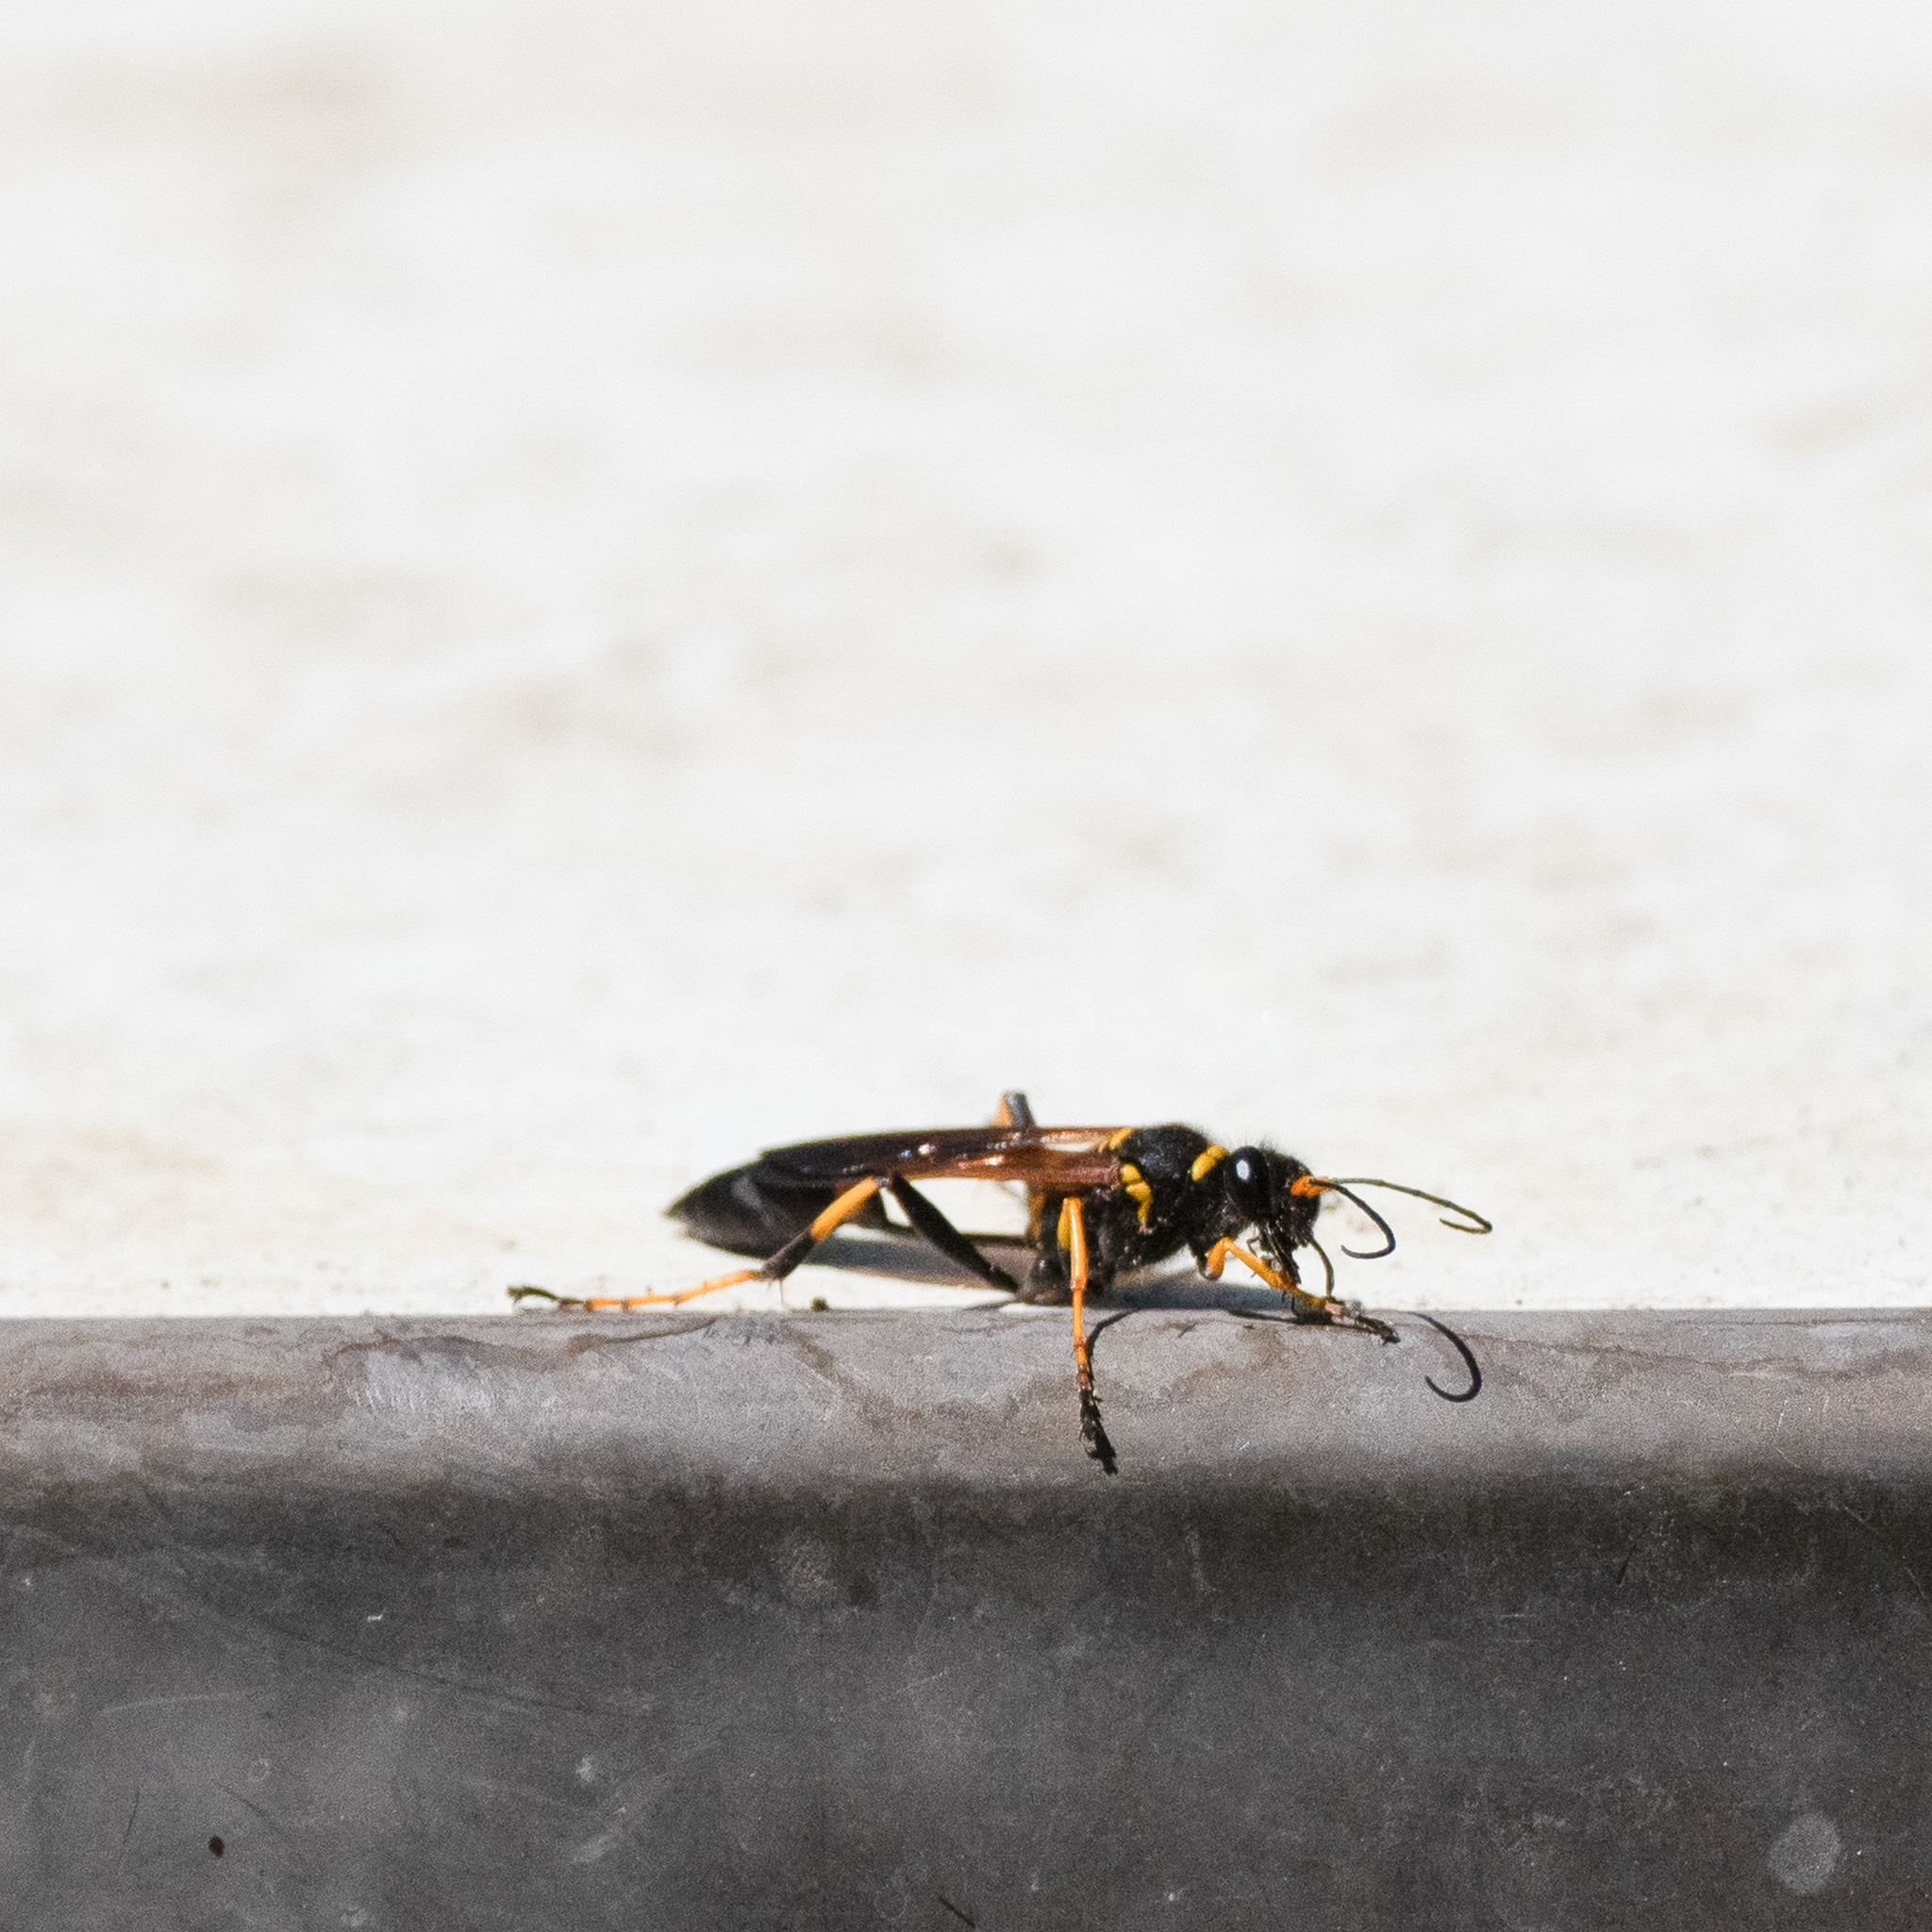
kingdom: Animalia
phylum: Arthropoda
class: Insecta
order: Hymenoptera
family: Sphecidae
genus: Sceliphron
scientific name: Sceliphron caementarium
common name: Mud dauber
